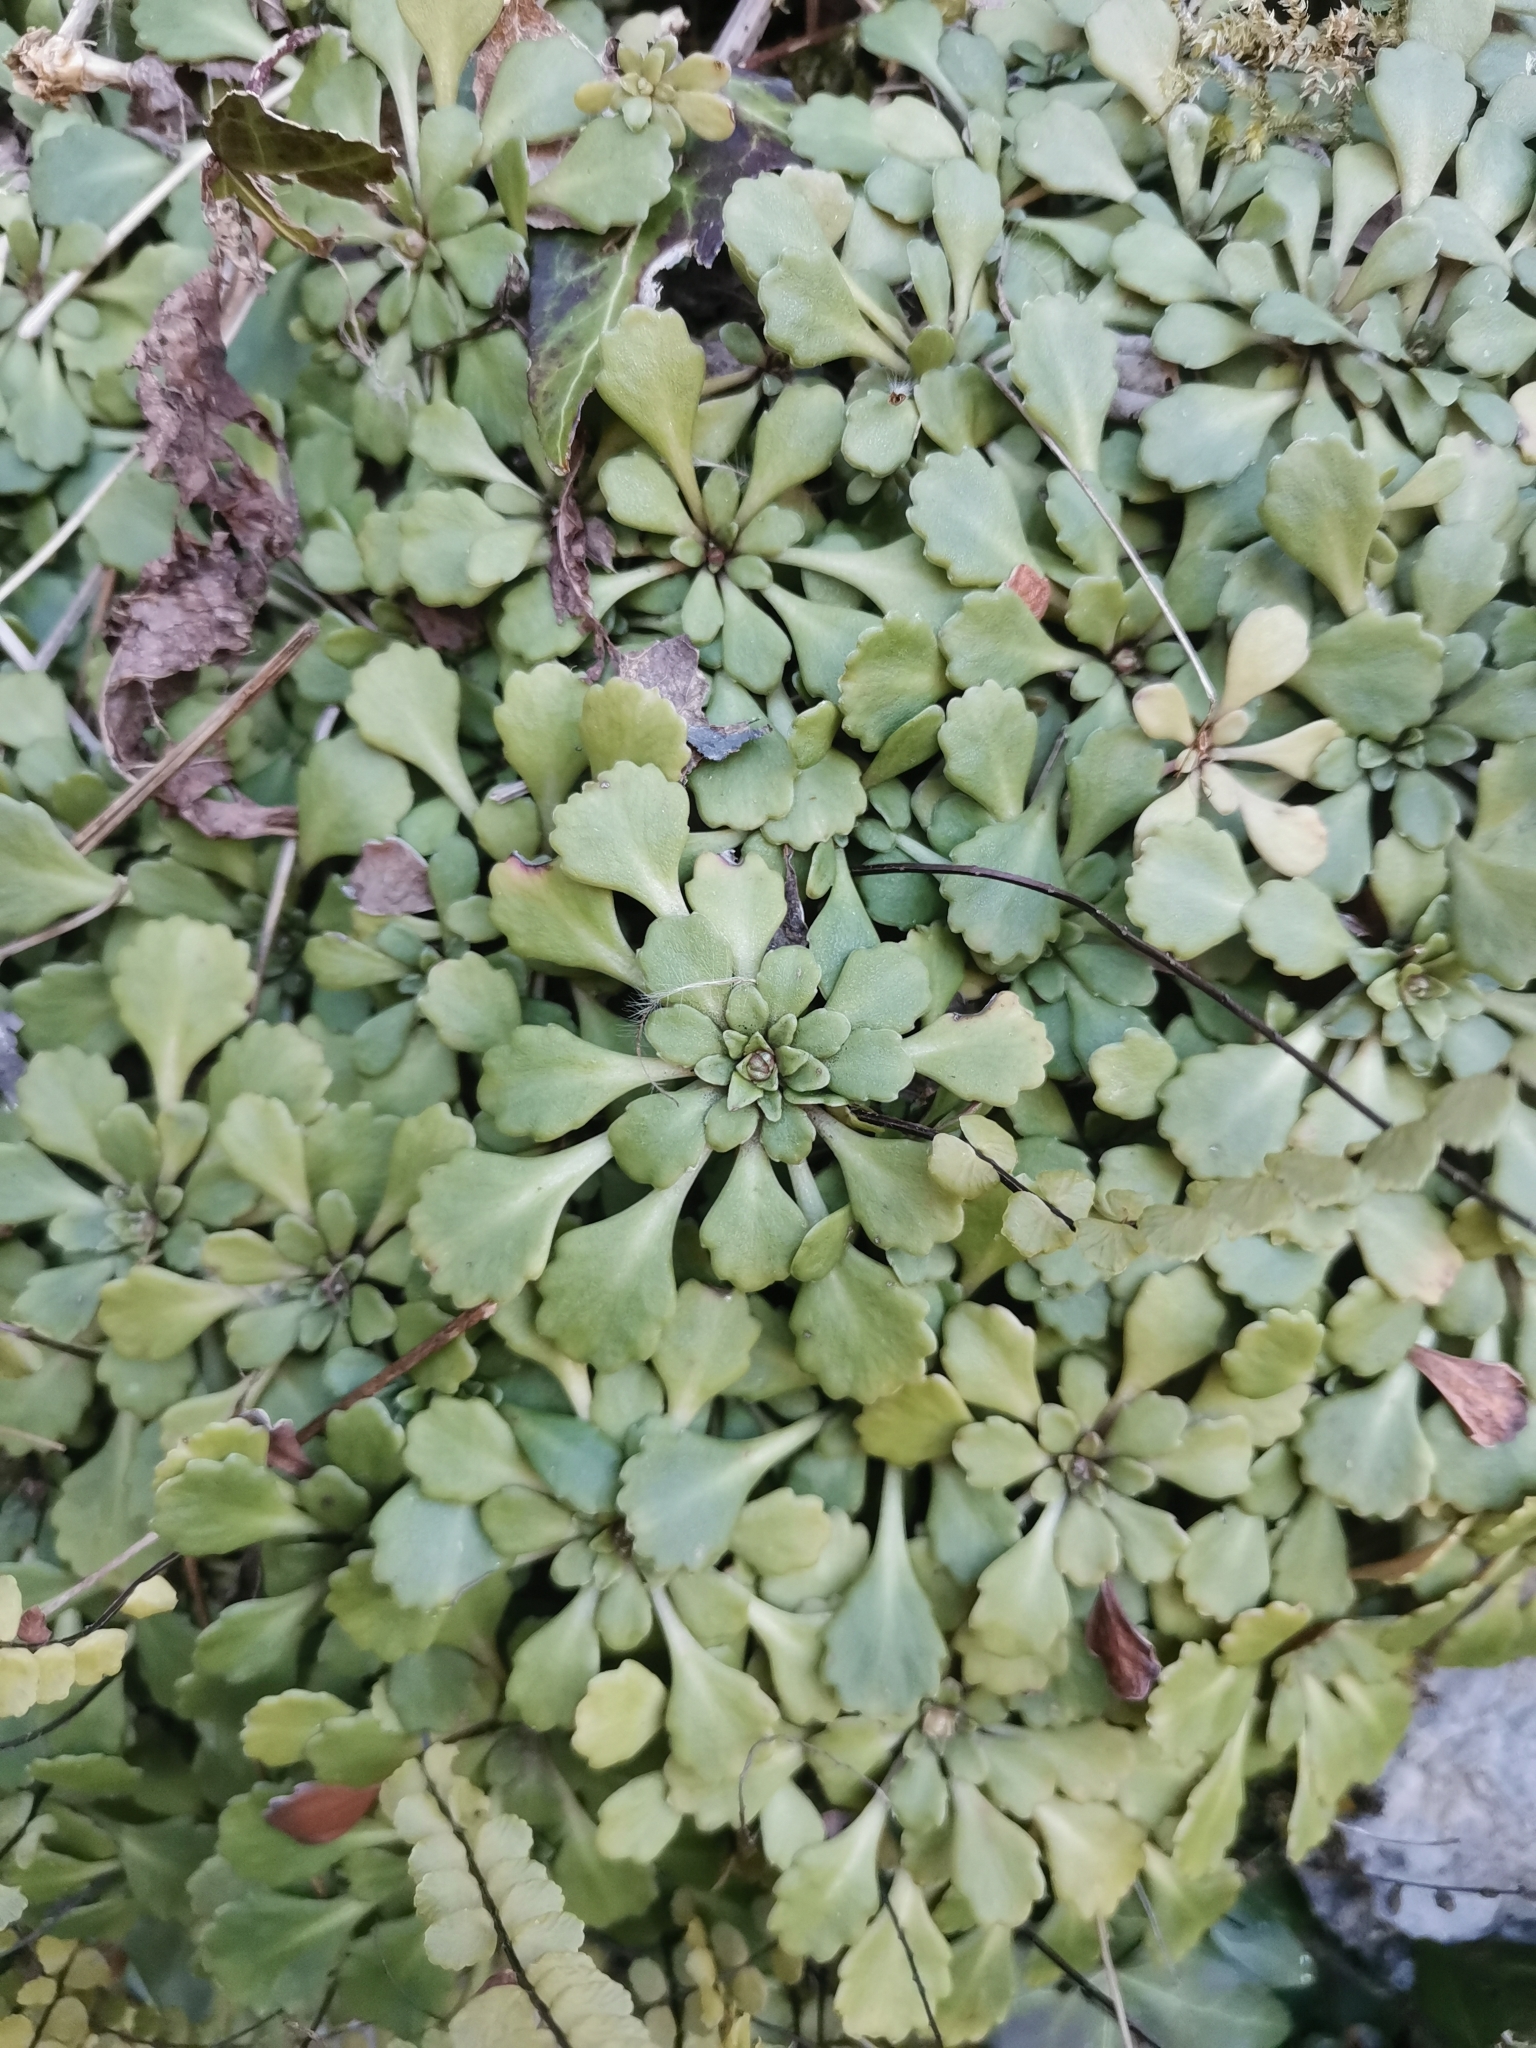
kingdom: Plantae
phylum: Tracheophyta
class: Magnoliopsida
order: Saxifragales
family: Saxifragaceae
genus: Saxifraga
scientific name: Saxifraga cuneifolia
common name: Lesser londonpride
